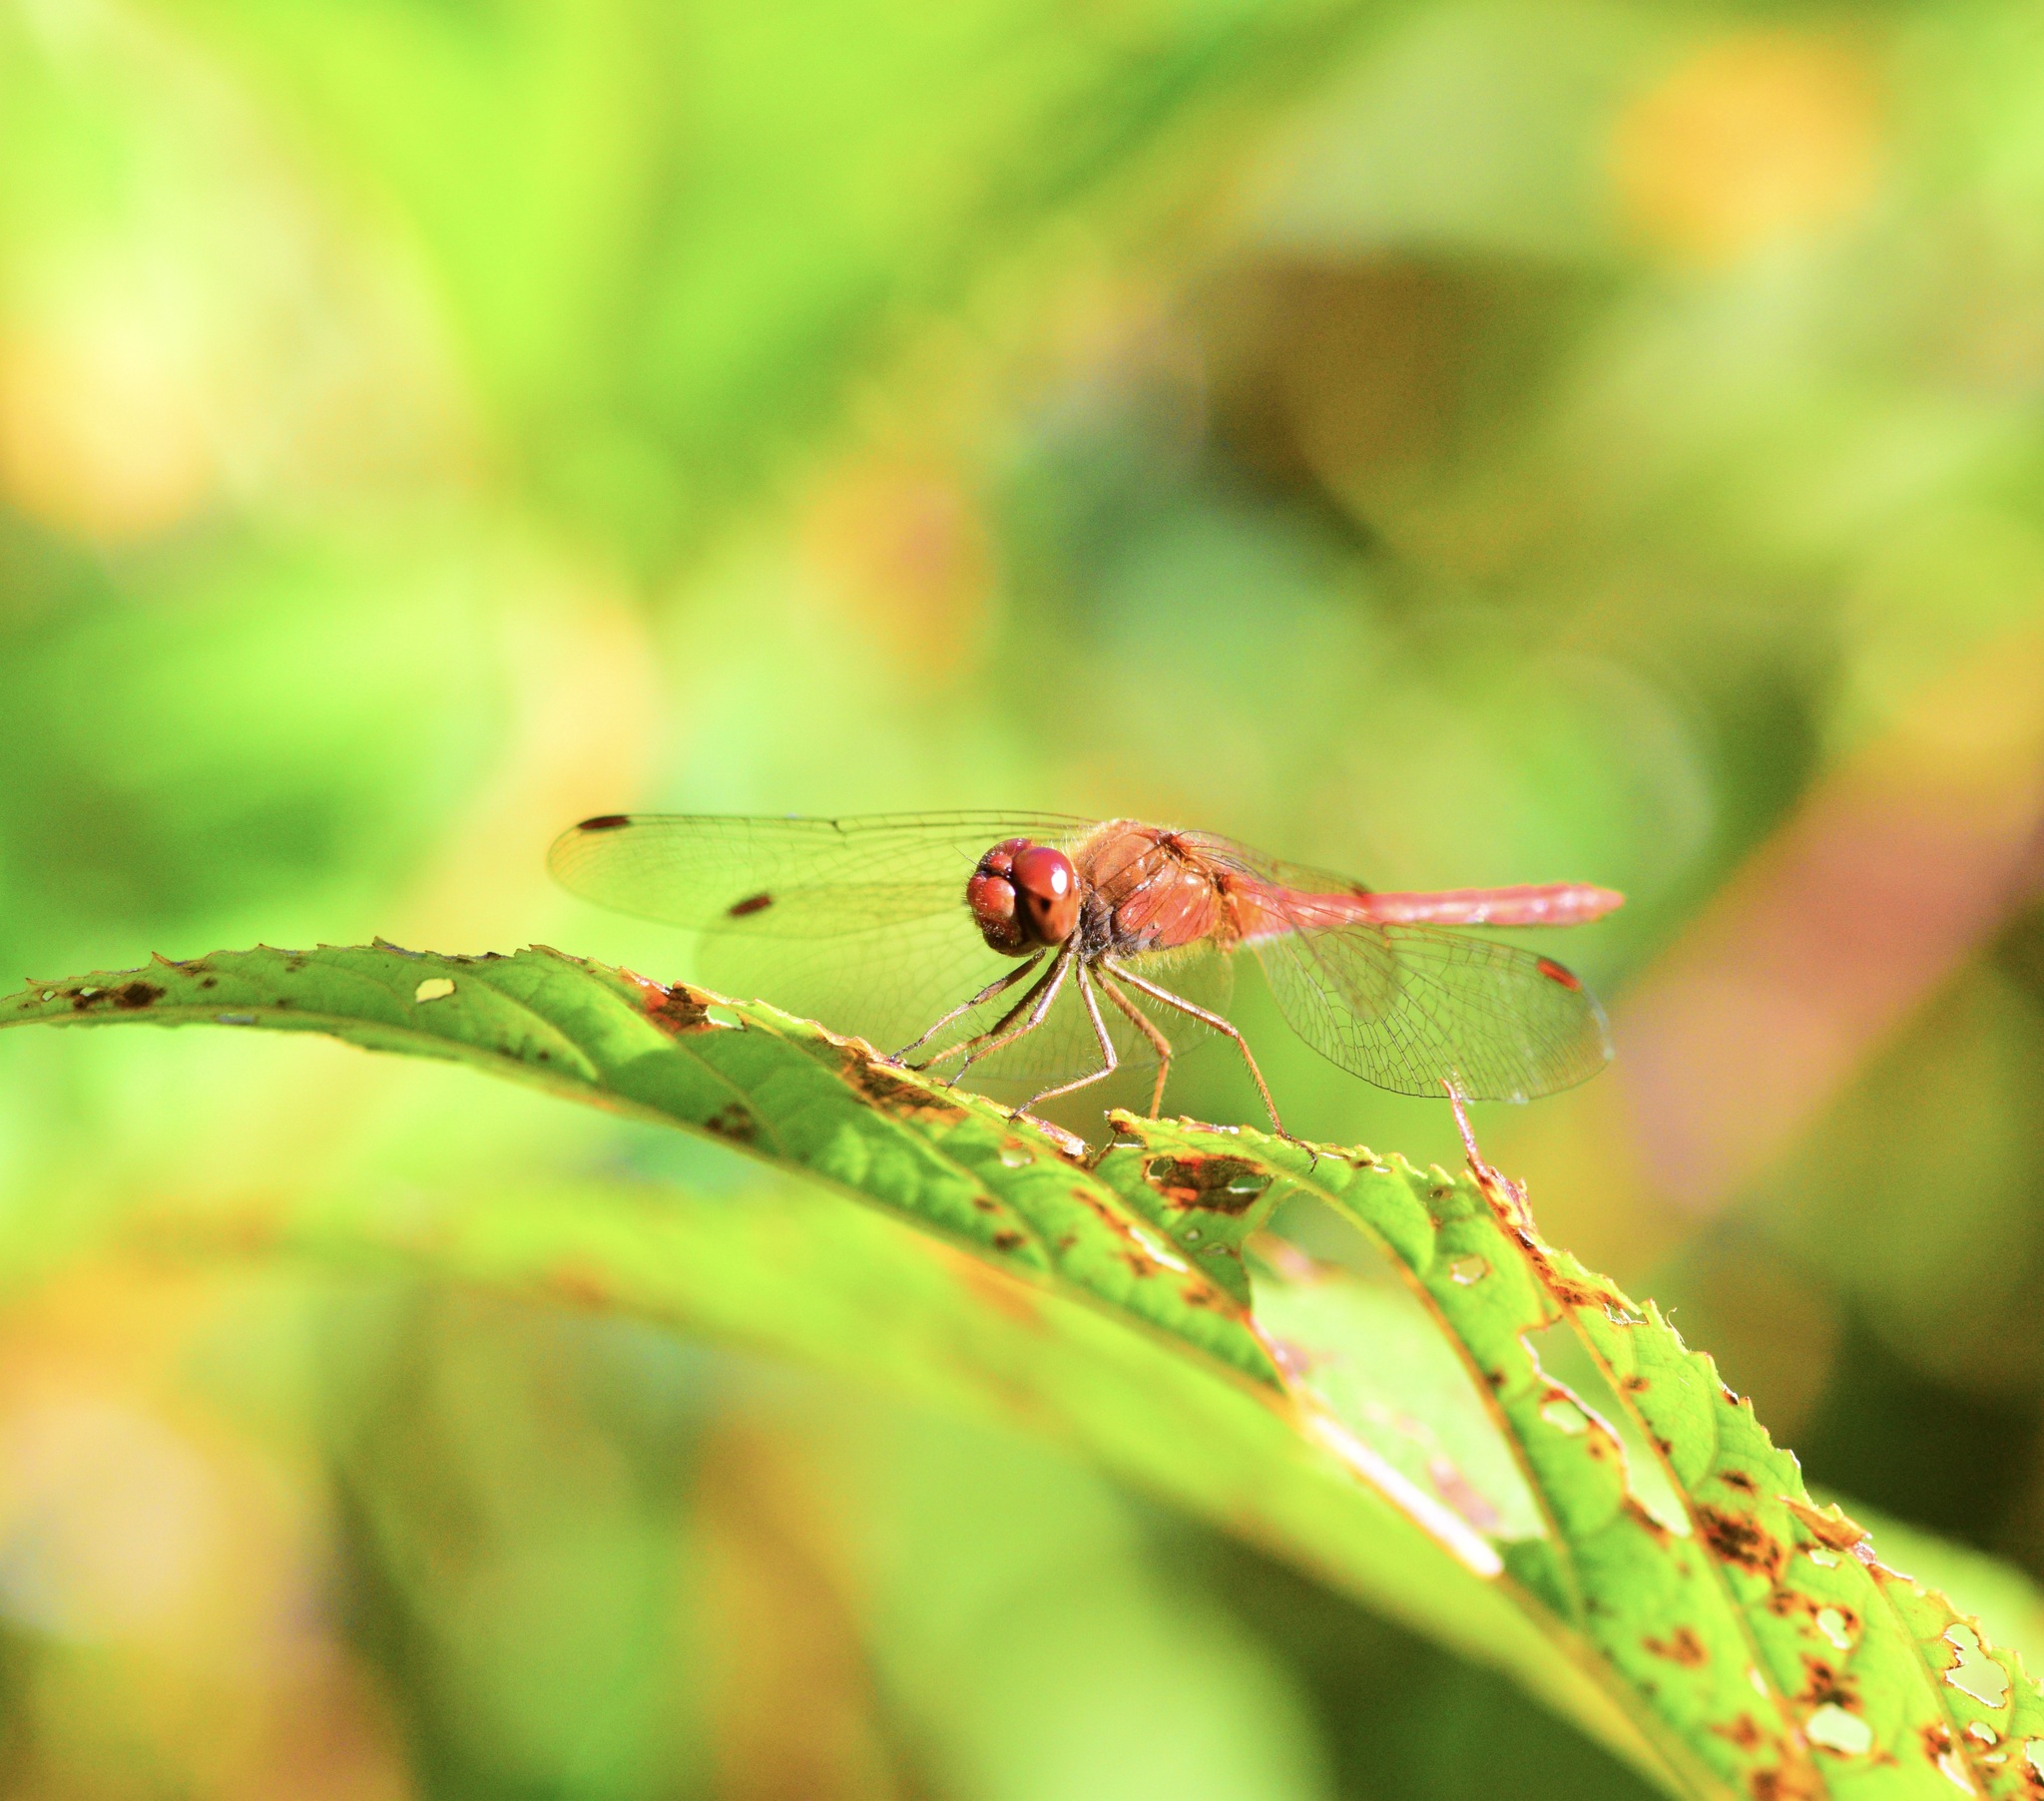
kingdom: Animalia
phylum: Arthropoda
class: Insecta
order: Odonata
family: Libellulidae
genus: Sympetrum
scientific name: Sympetrum vicinum
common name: Autumn meadowhawk
